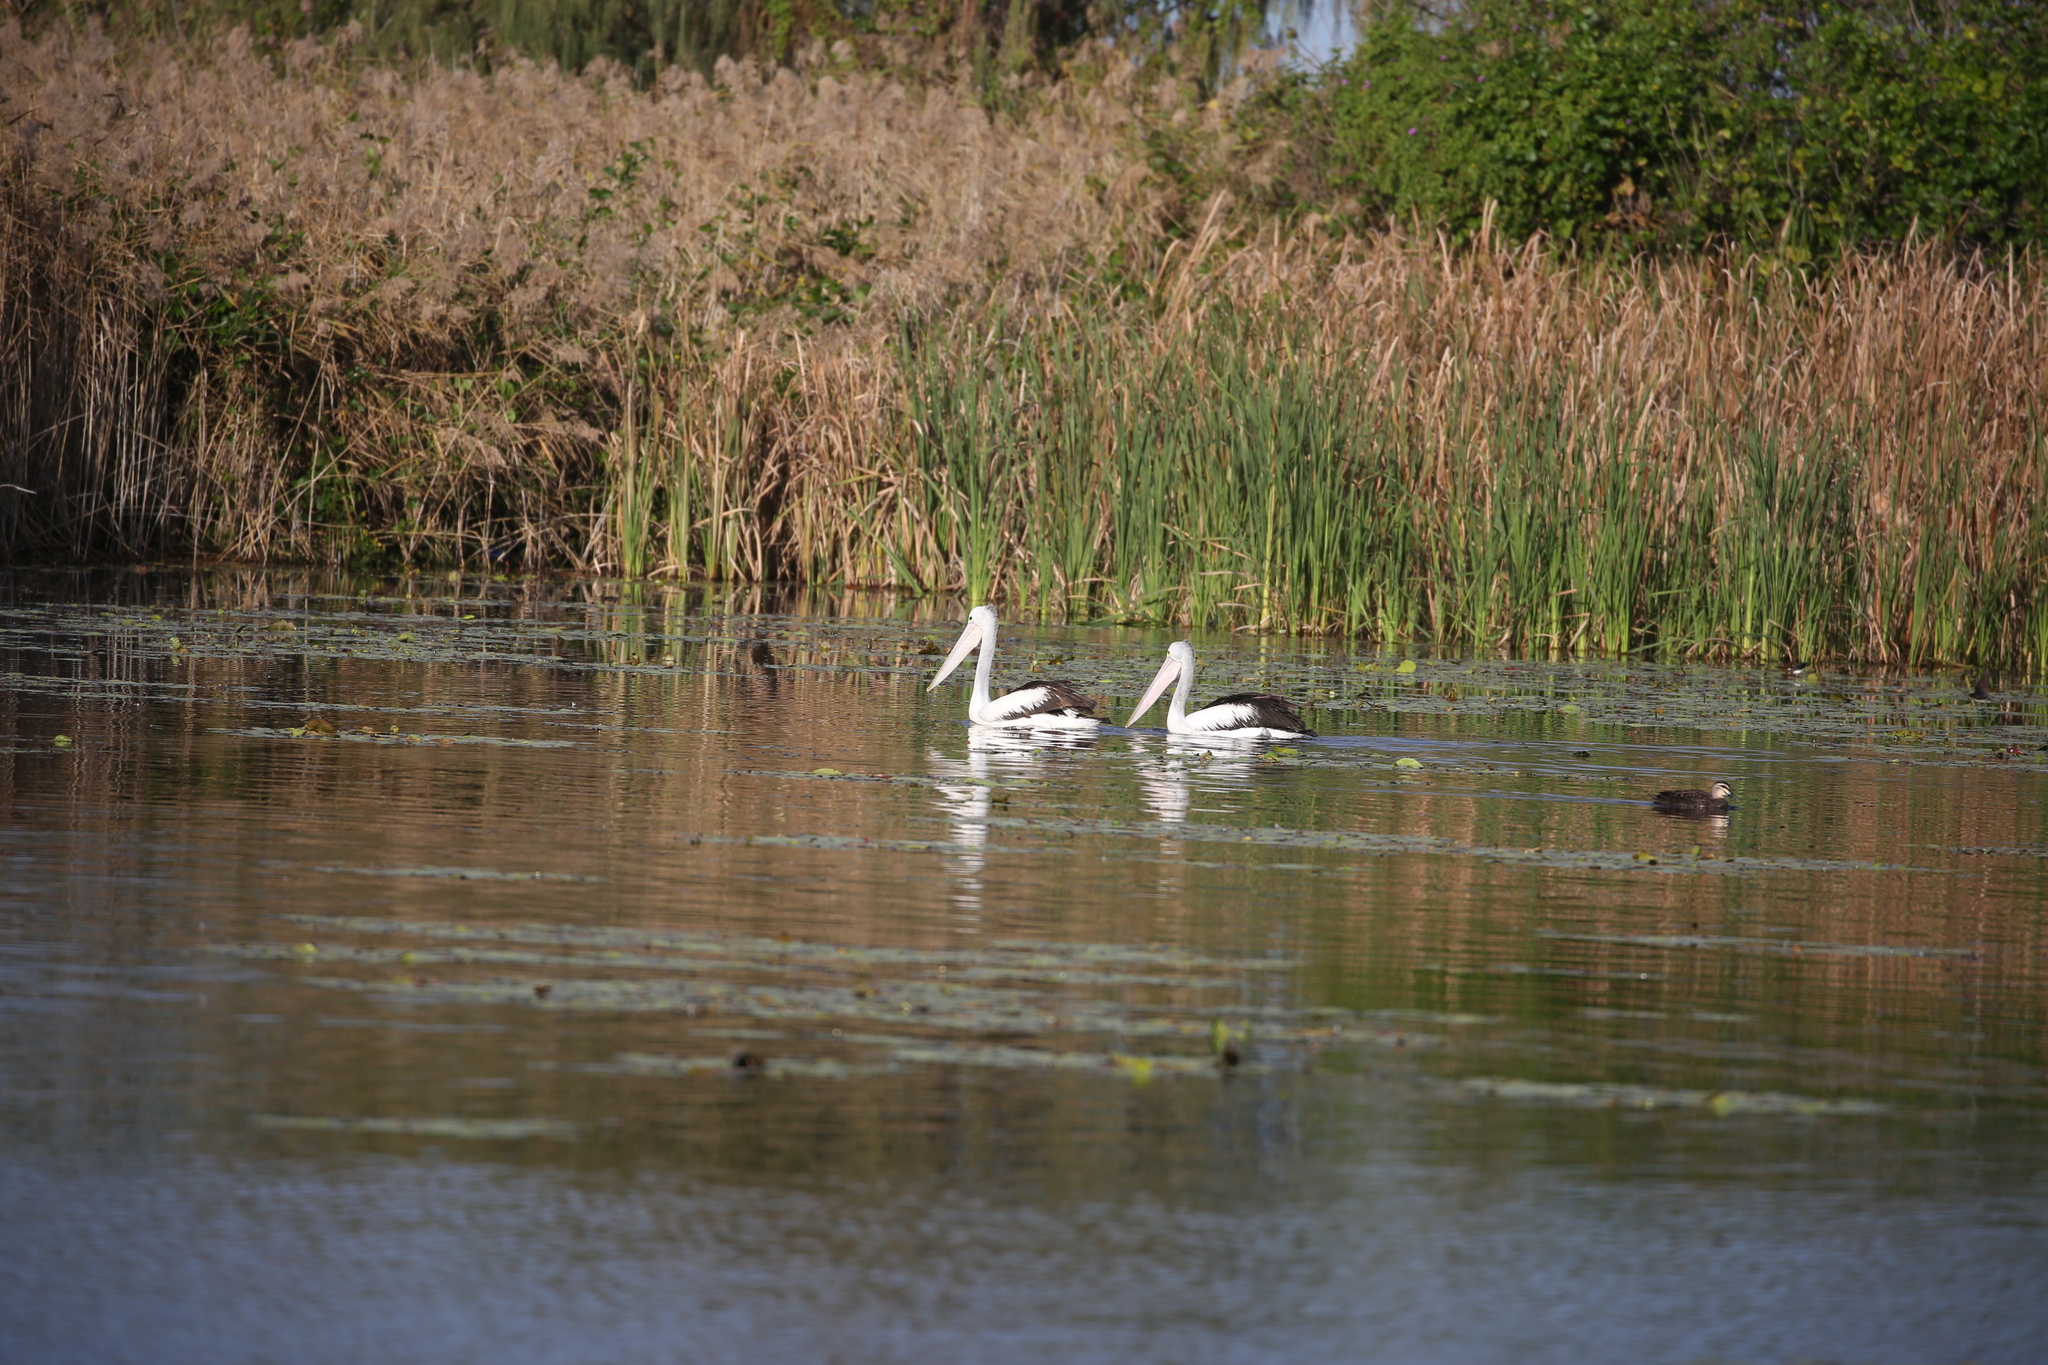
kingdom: Animalia
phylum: Chordata
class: Aves
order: Pelecaniformes
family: Pelecanidae
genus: Pelecanus
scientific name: Pelecanus conspicillatus
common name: Australian pelican
